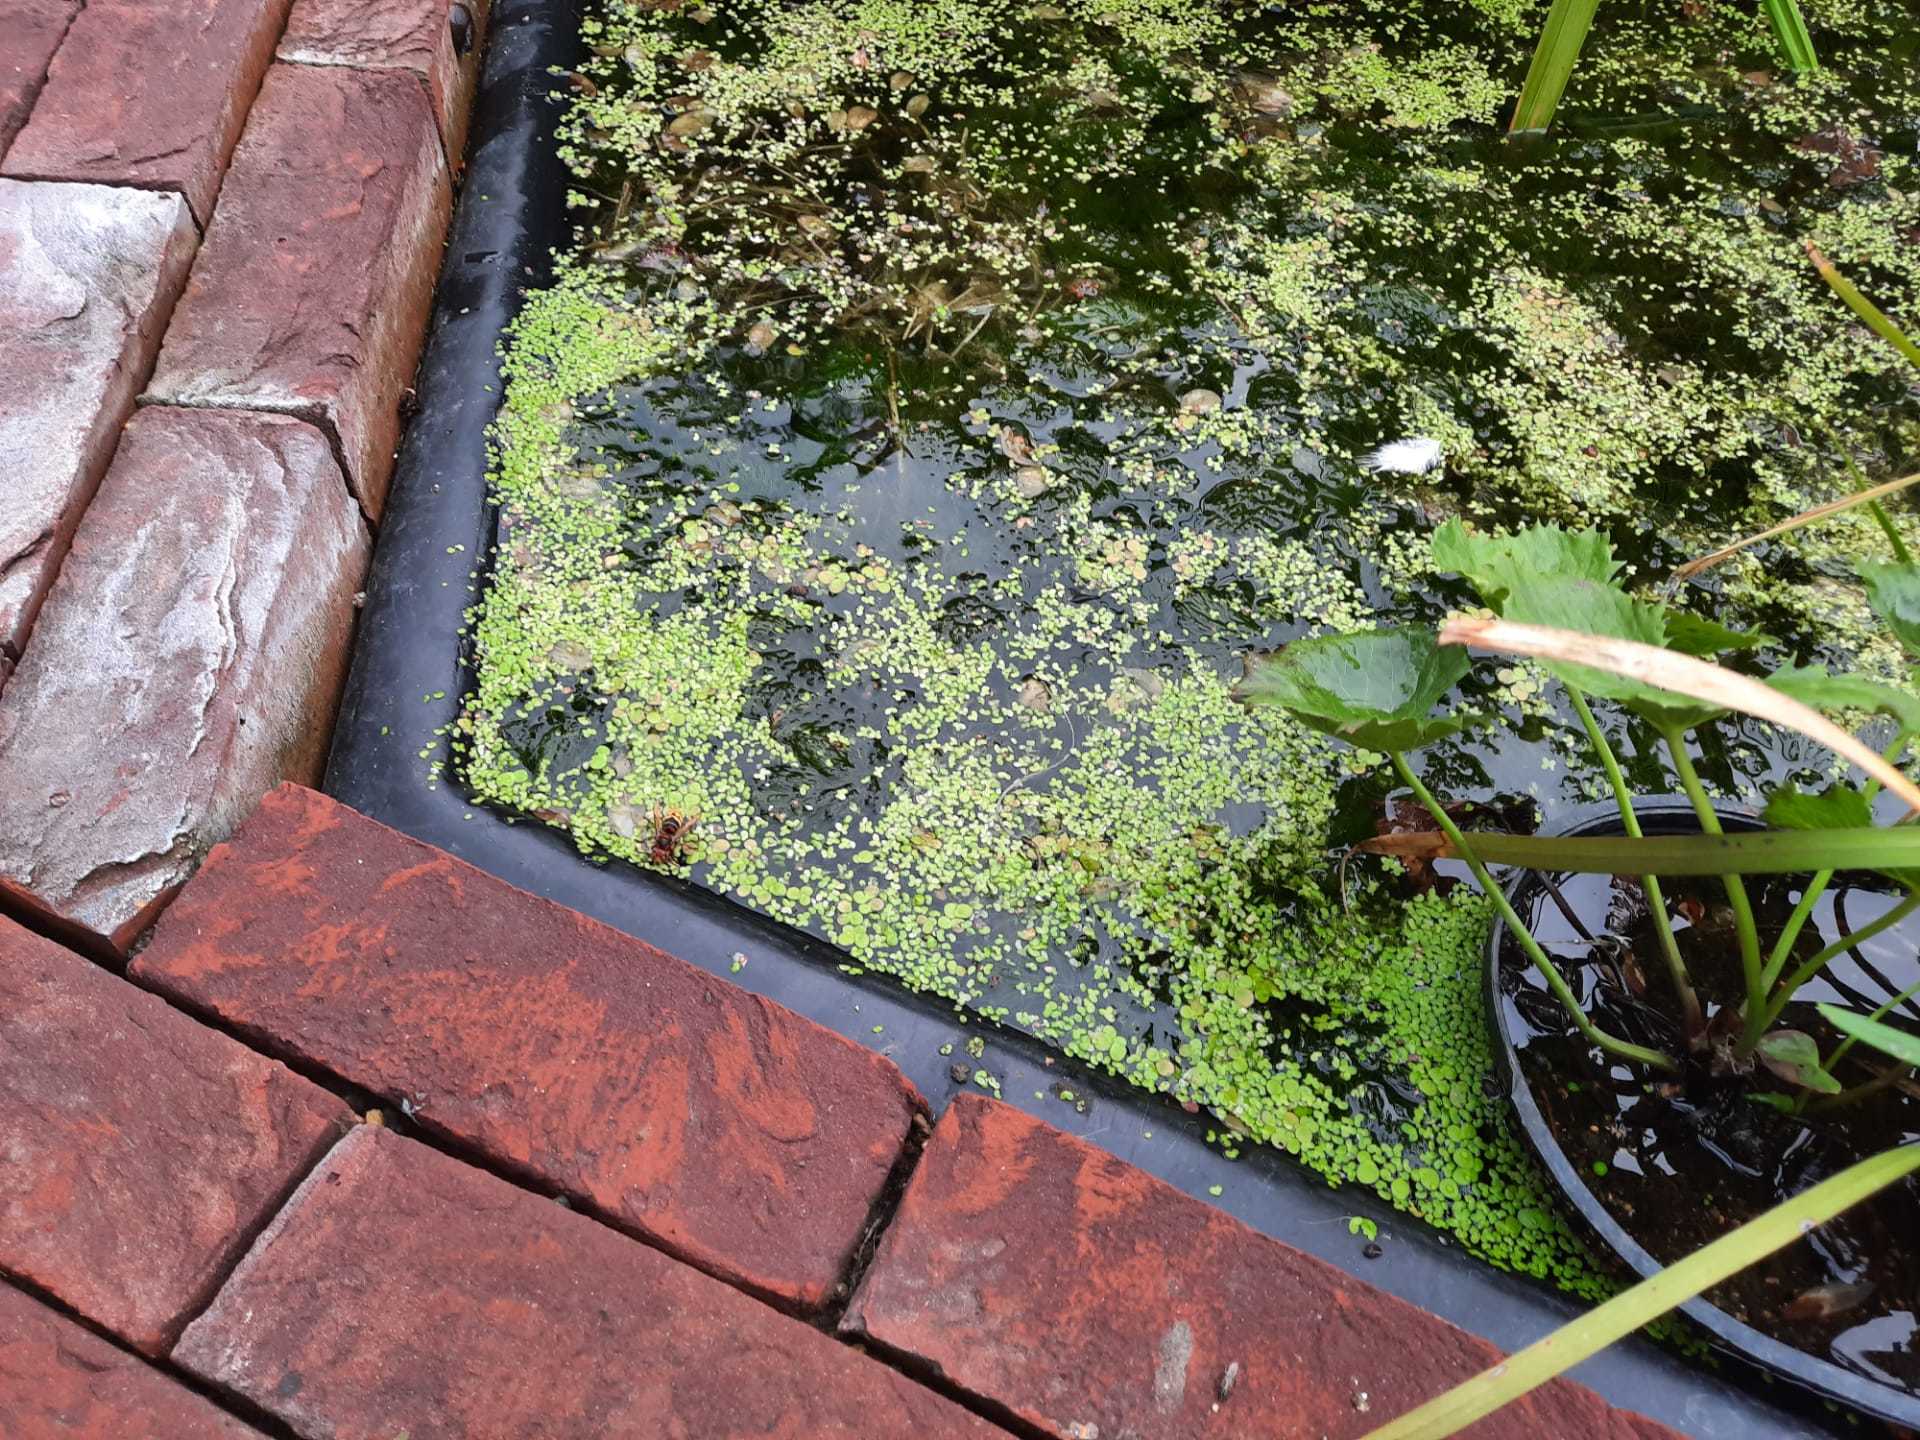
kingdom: Animalia
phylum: Arthropoda
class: Insecta
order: Hymenoptera
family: Vespidae
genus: Vespa
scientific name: Vespa crabro
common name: Hornet
